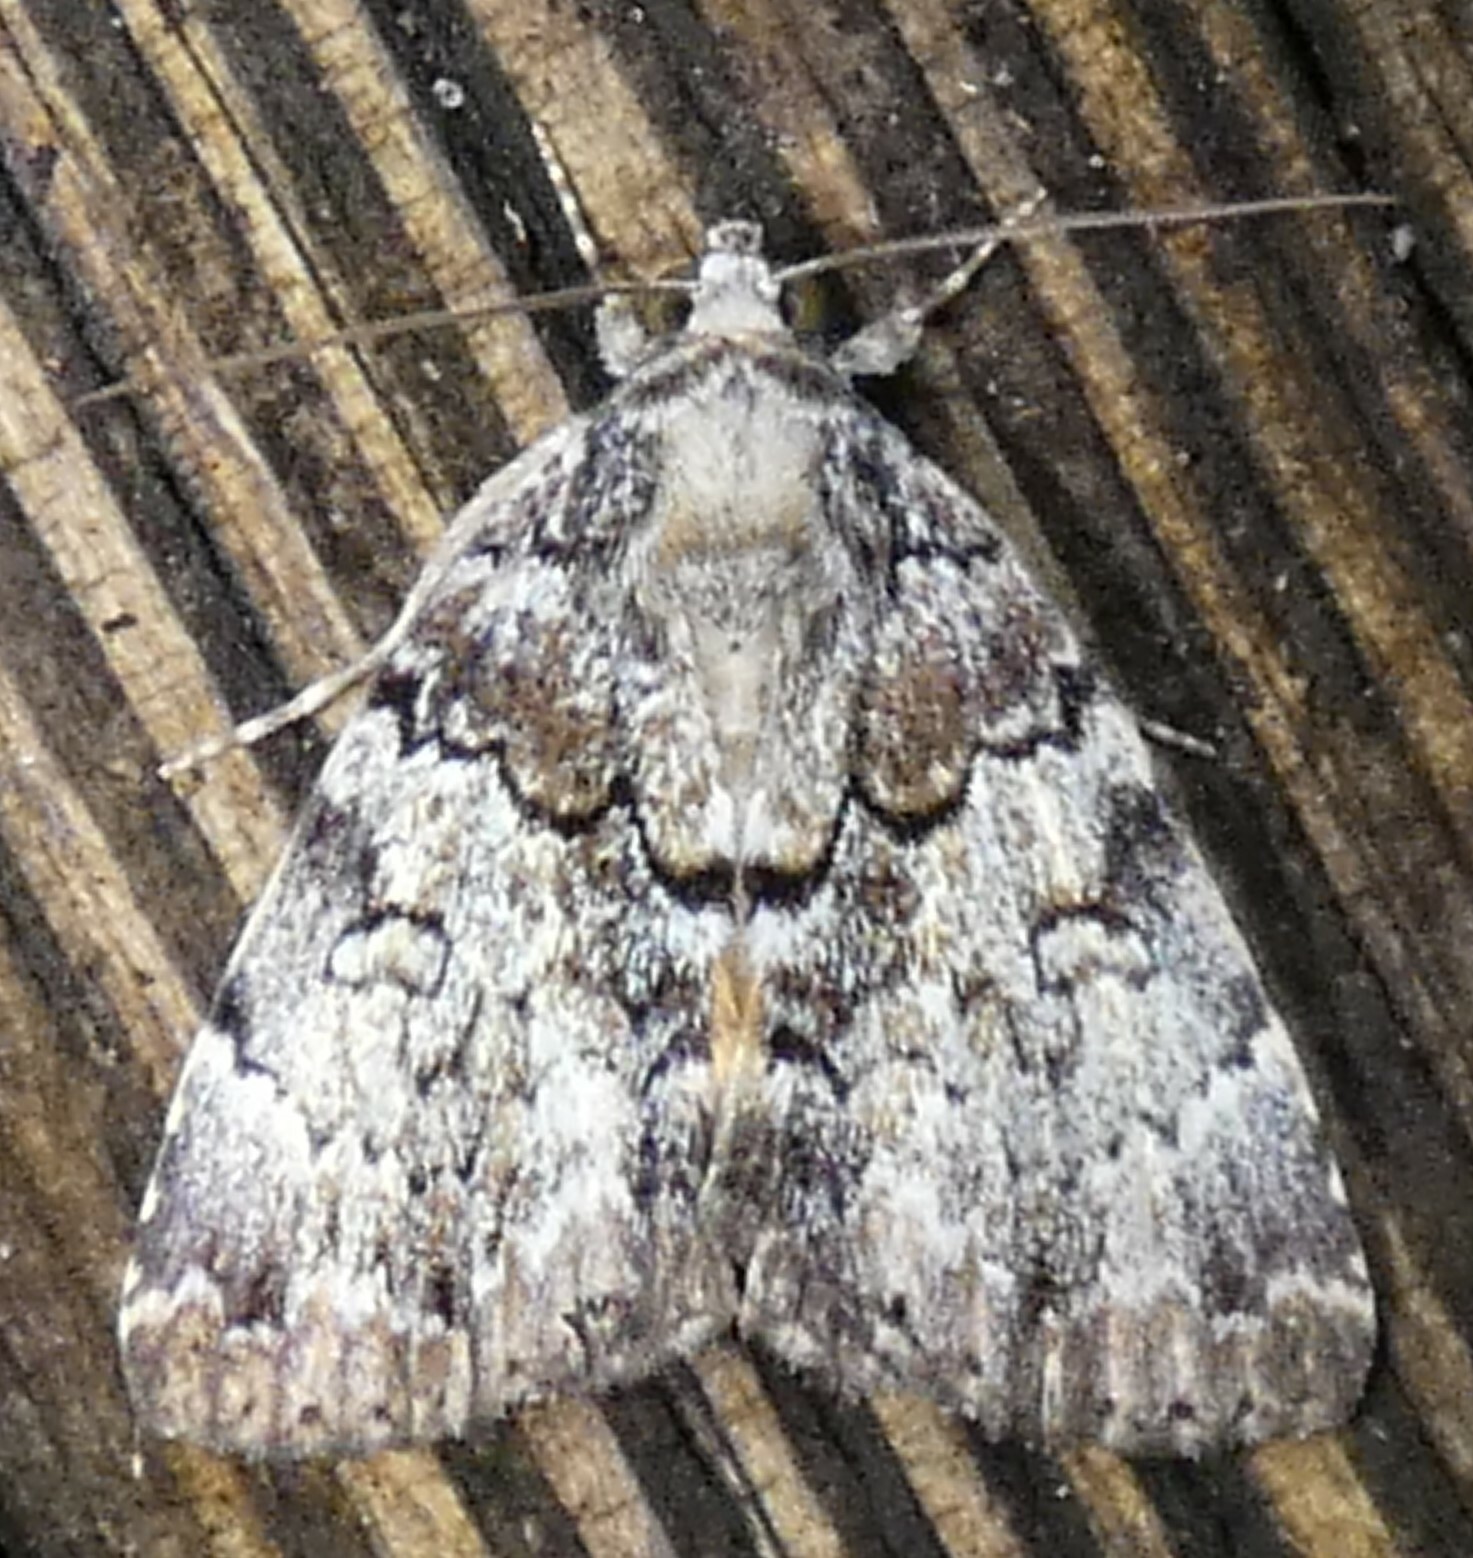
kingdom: Animalia
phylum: Arthropoda
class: Insecta
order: Lepidoptera
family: Erebidae
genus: Allotria
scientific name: Allotria elonympha
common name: False underwing
